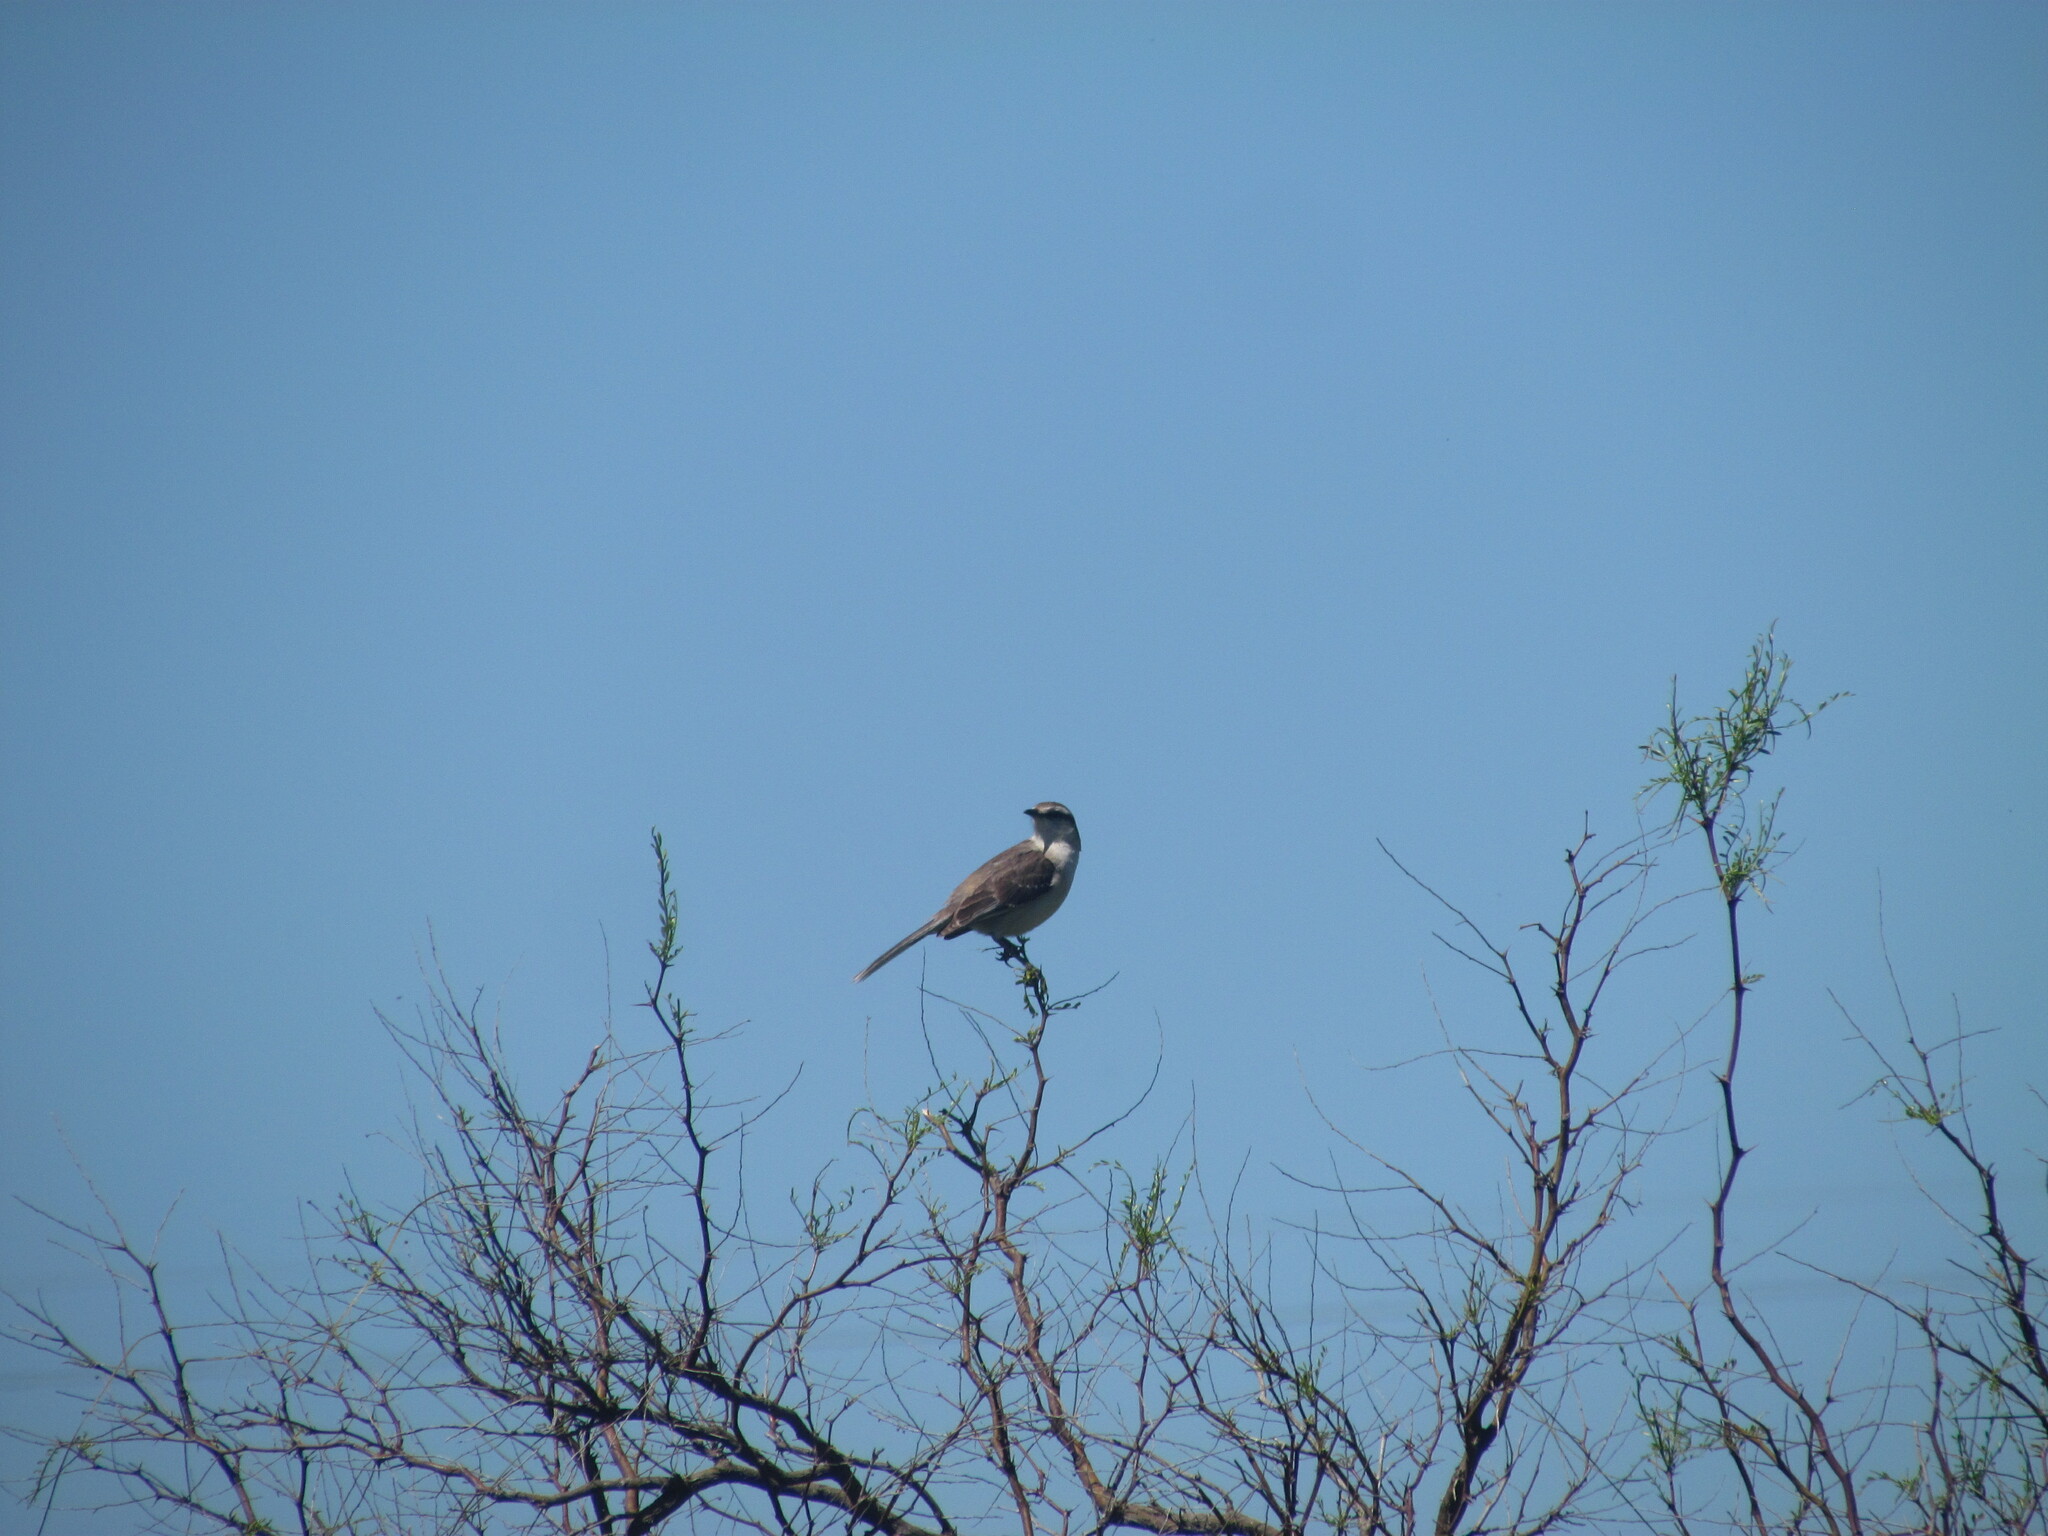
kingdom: Animalia
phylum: Chordata
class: Aves
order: Passeriformes
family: Mimidae
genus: Mimus
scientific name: Mimus saturninus
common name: Chalk-browed mockingbird
